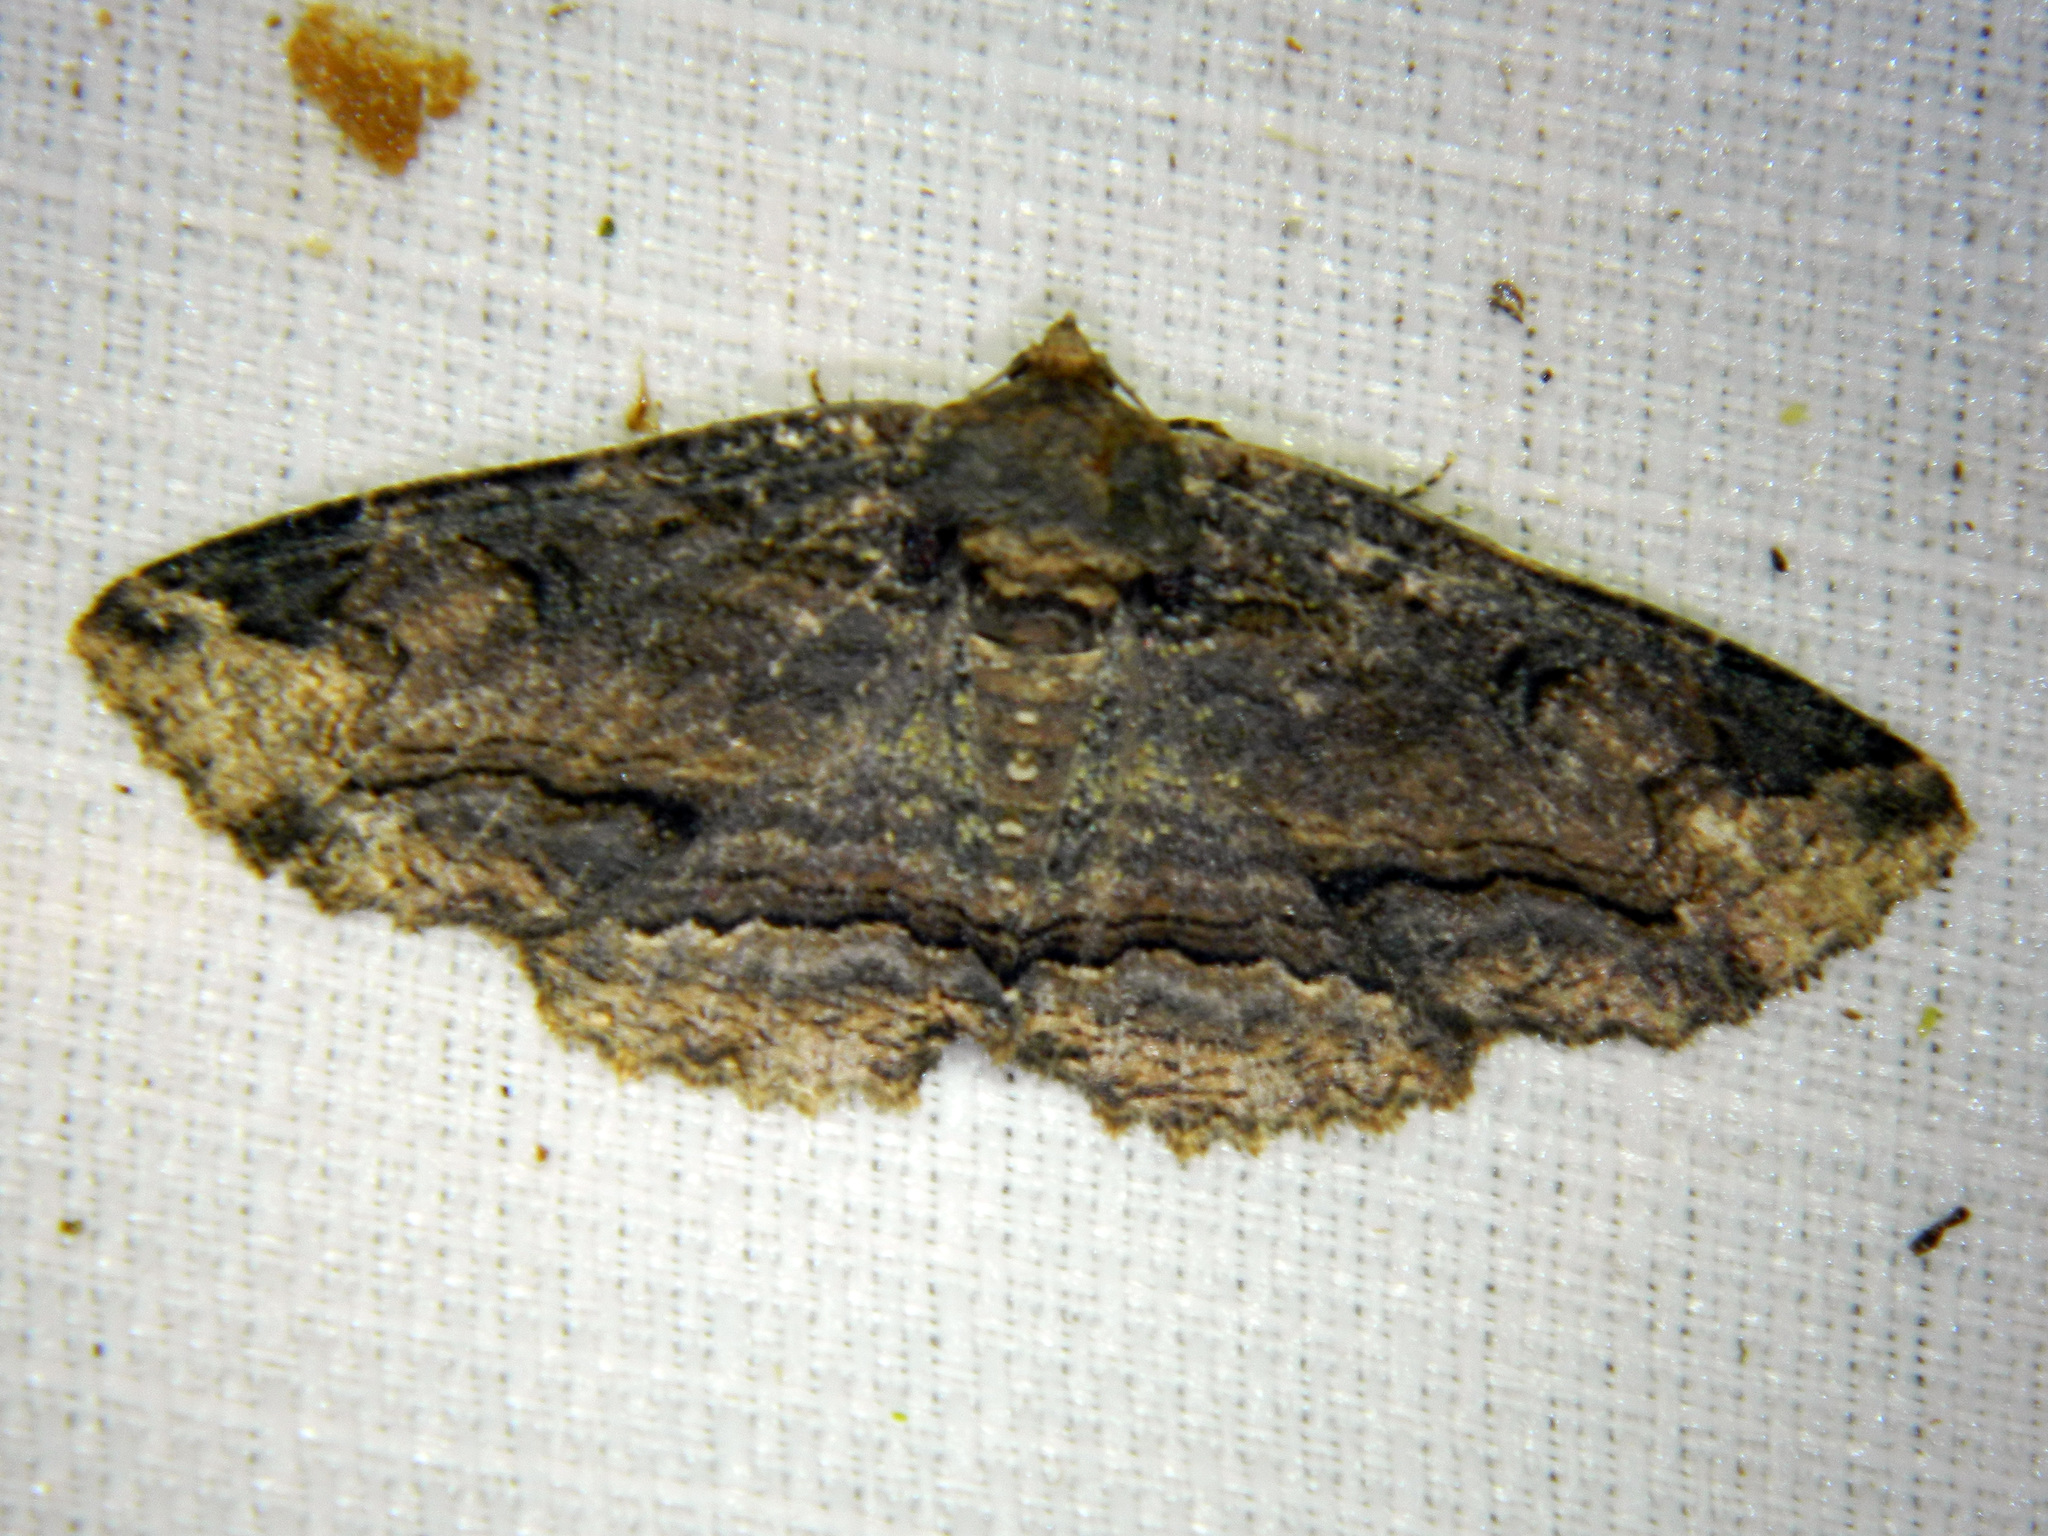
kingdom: Animalia
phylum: Arthropoda
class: Insecta
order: Lepidoptera
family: Erebidae
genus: Zale
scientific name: Zale minerea
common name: Colorful zale moth
